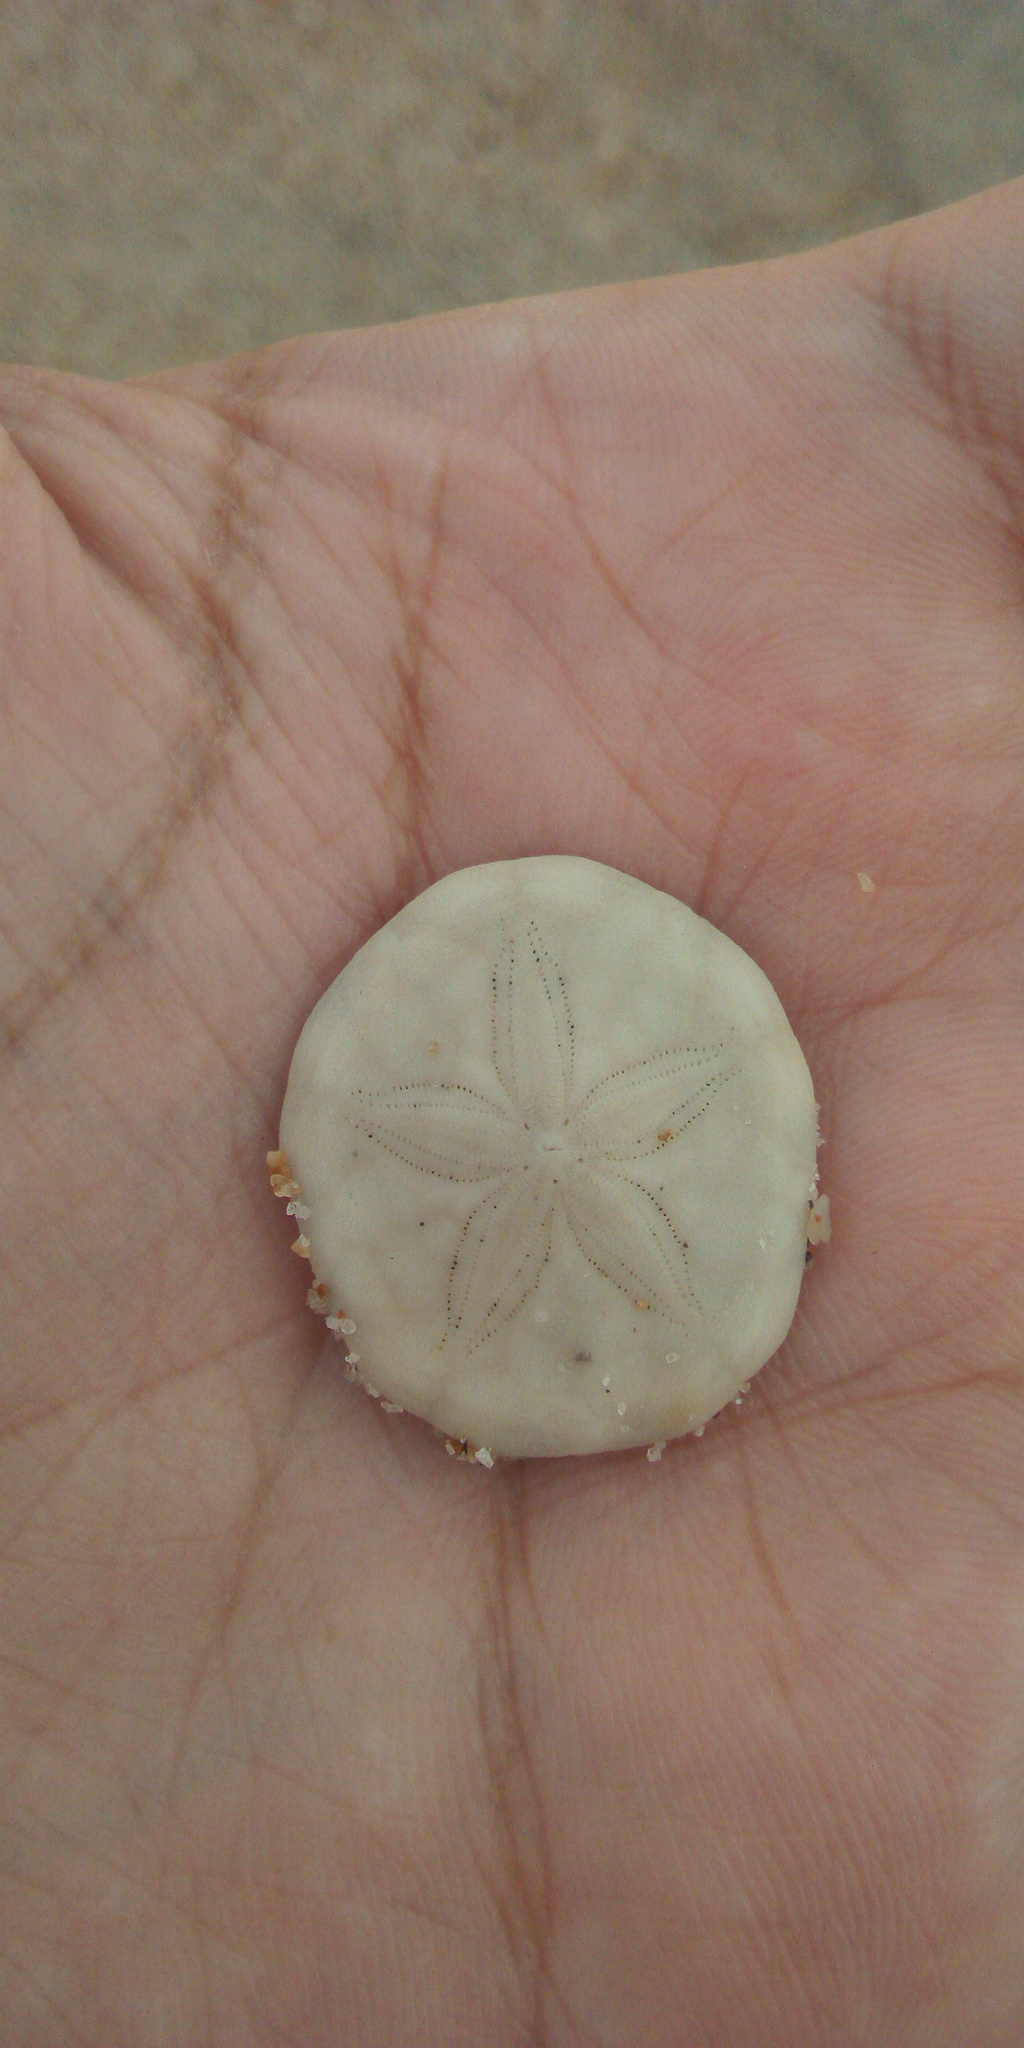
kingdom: Animalia
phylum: Echinodermata
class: Echinoidea
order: Echinolampadacea
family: Laganidae
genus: Jacksonaster
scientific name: Jacksonaster depressus
